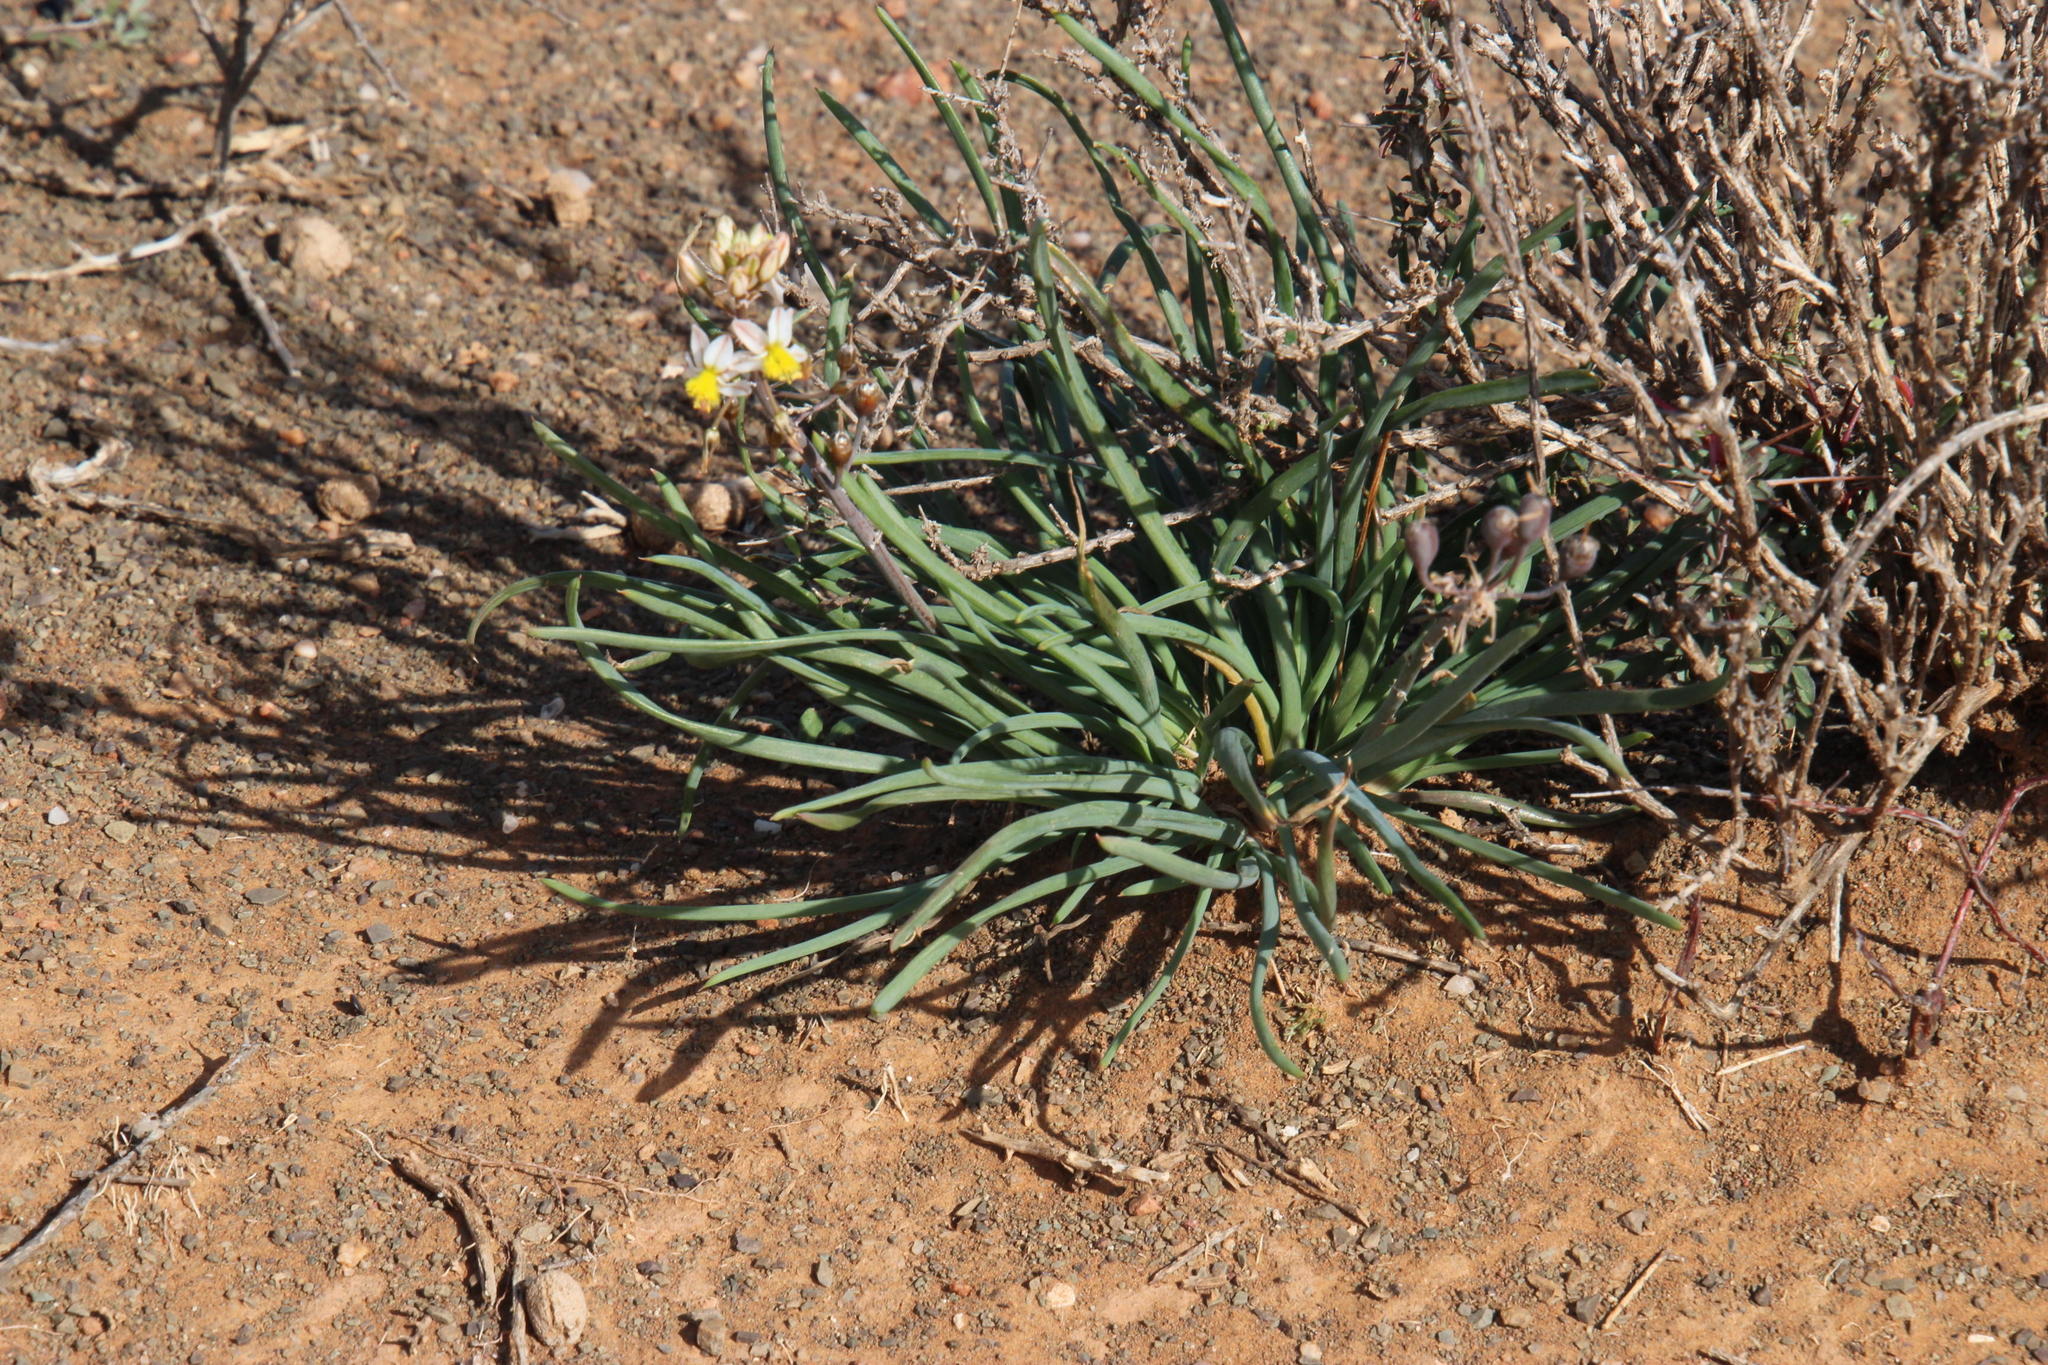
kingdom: Plantae
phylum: Tracheophyta
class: Liliopsida
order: Asparagales
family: Asphodelaceae
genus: Bulbine
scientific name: Bulbine triebneri
